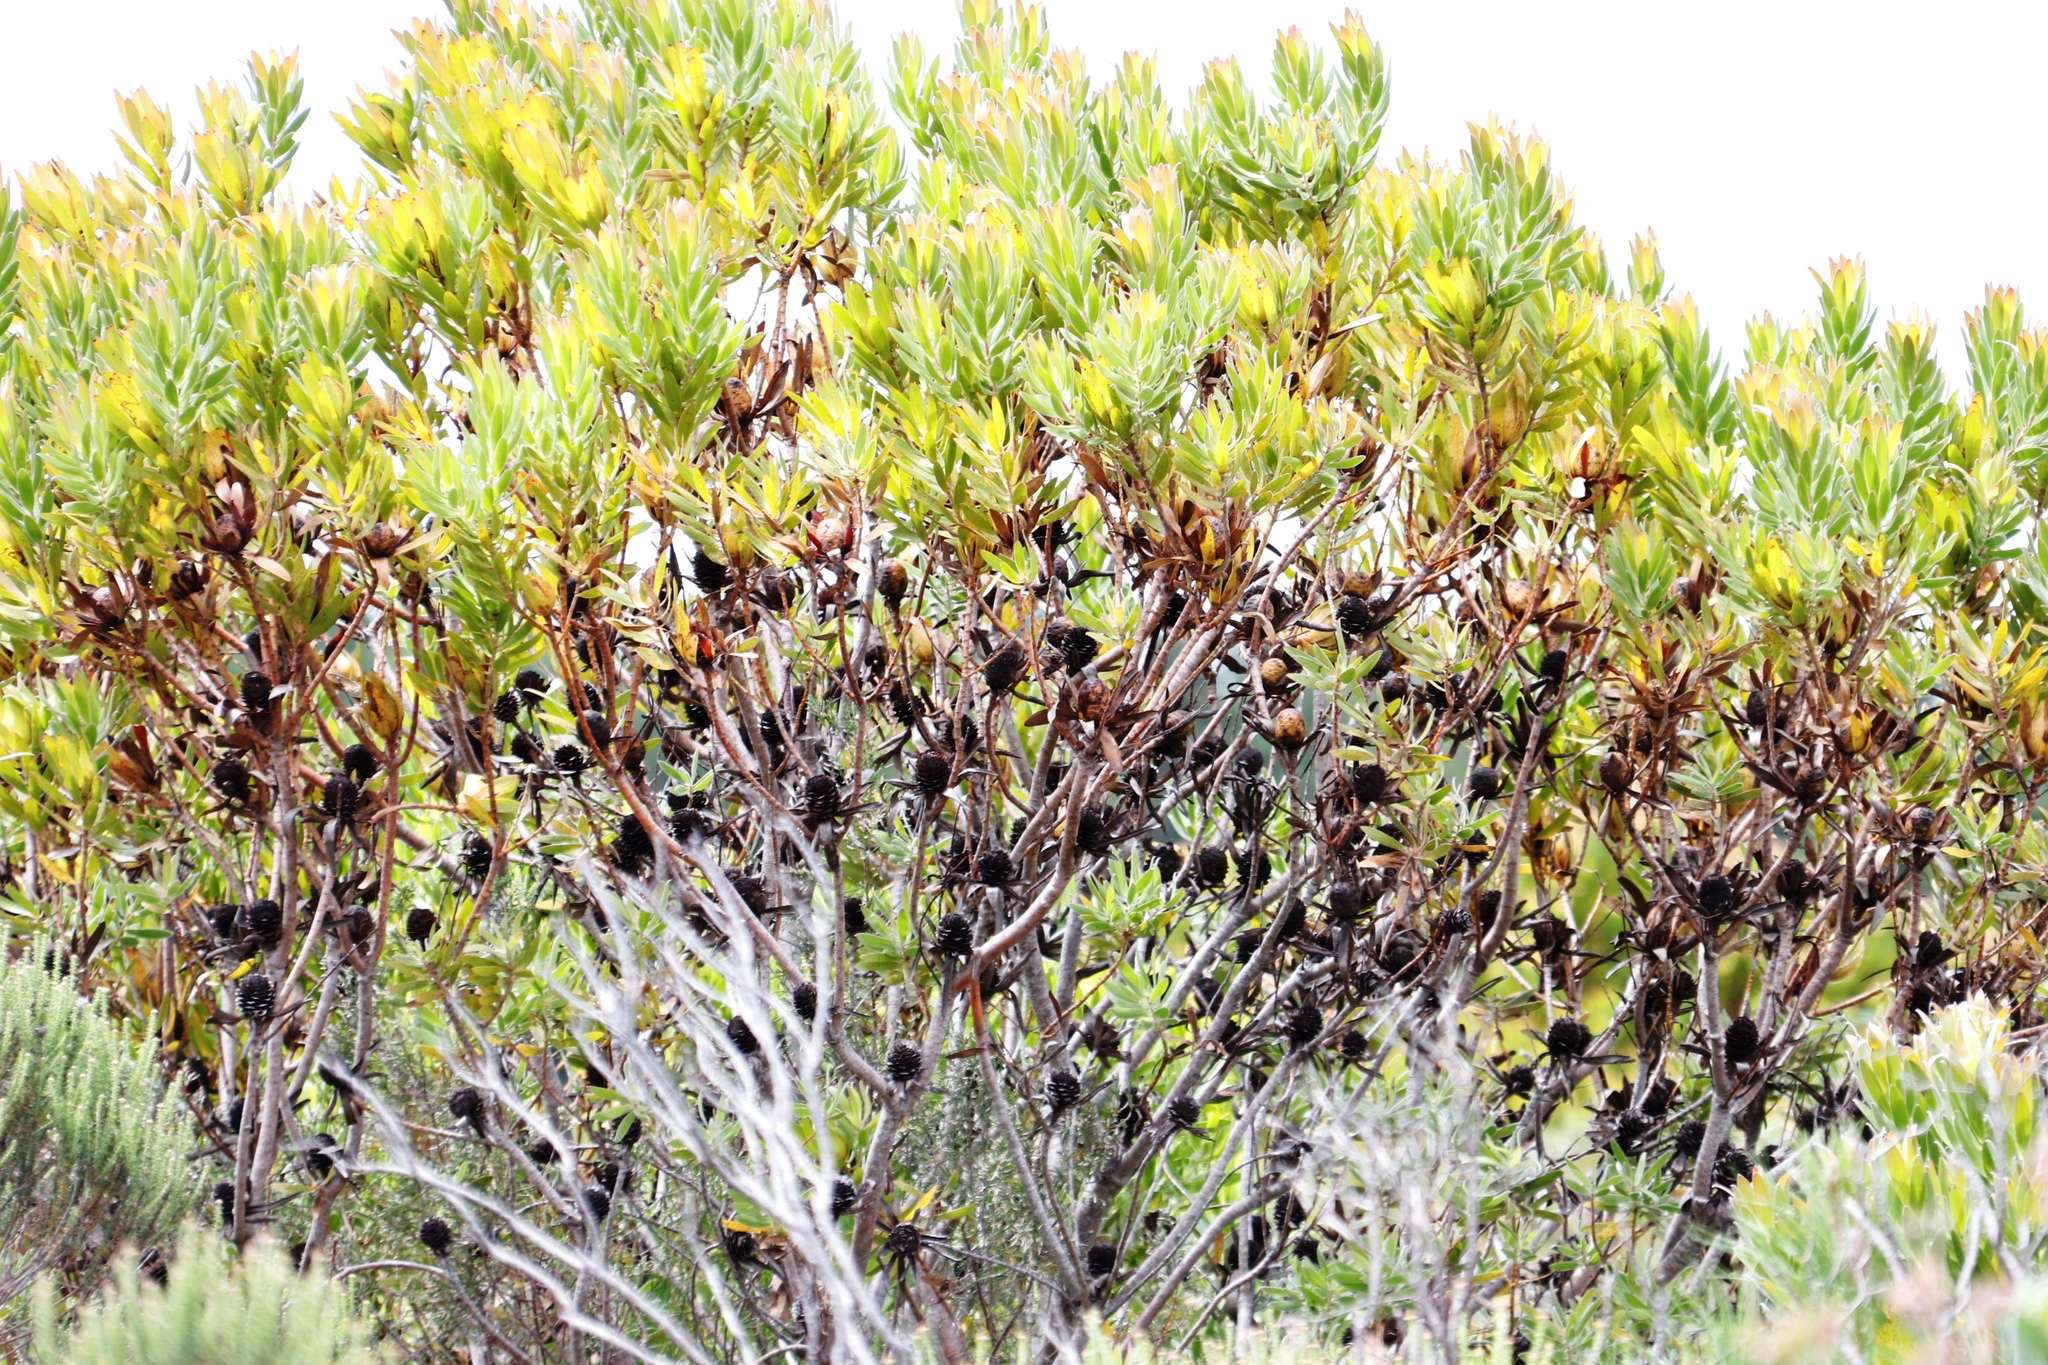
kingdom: Plantae
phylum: Tracheophyta
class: Magnoliopsida
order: Proteales
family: Proteaceae
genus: Leucadendron
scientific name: Leucadendron laureolum
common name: Golden sunshinebush
